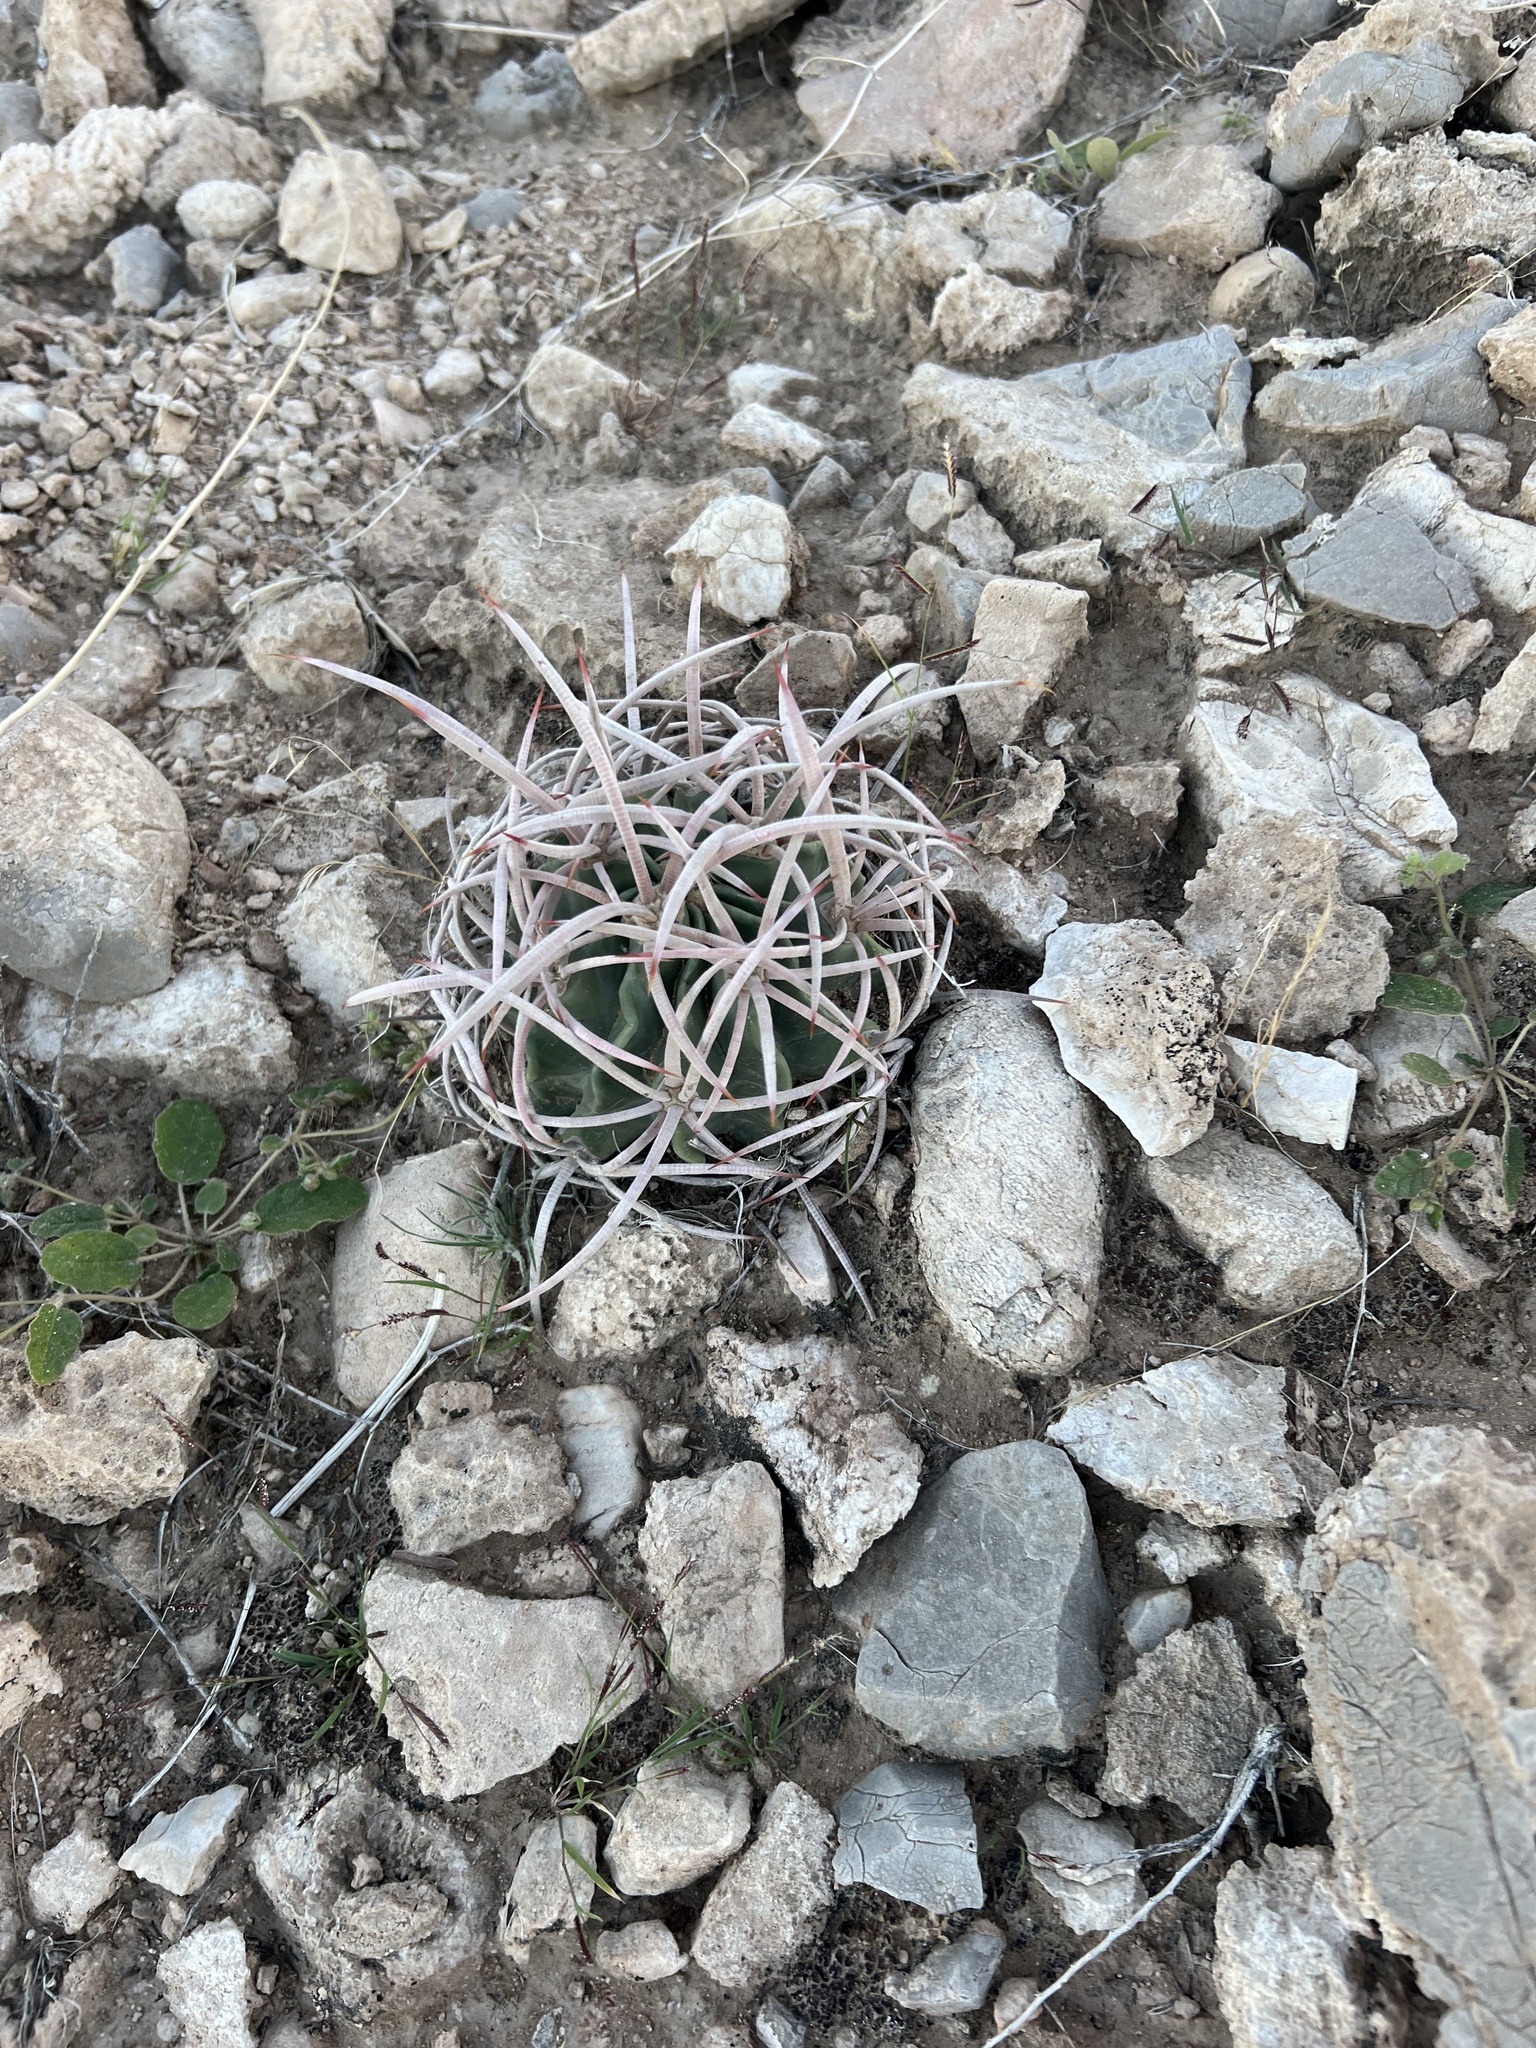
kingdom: Plantae
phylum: Tracheophyta
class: Magnoliopsida
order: Caryophyllales
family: Cactaceae
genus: Echinocactus
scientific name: Echinocactus polycephalus
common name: Cottontop cactus
